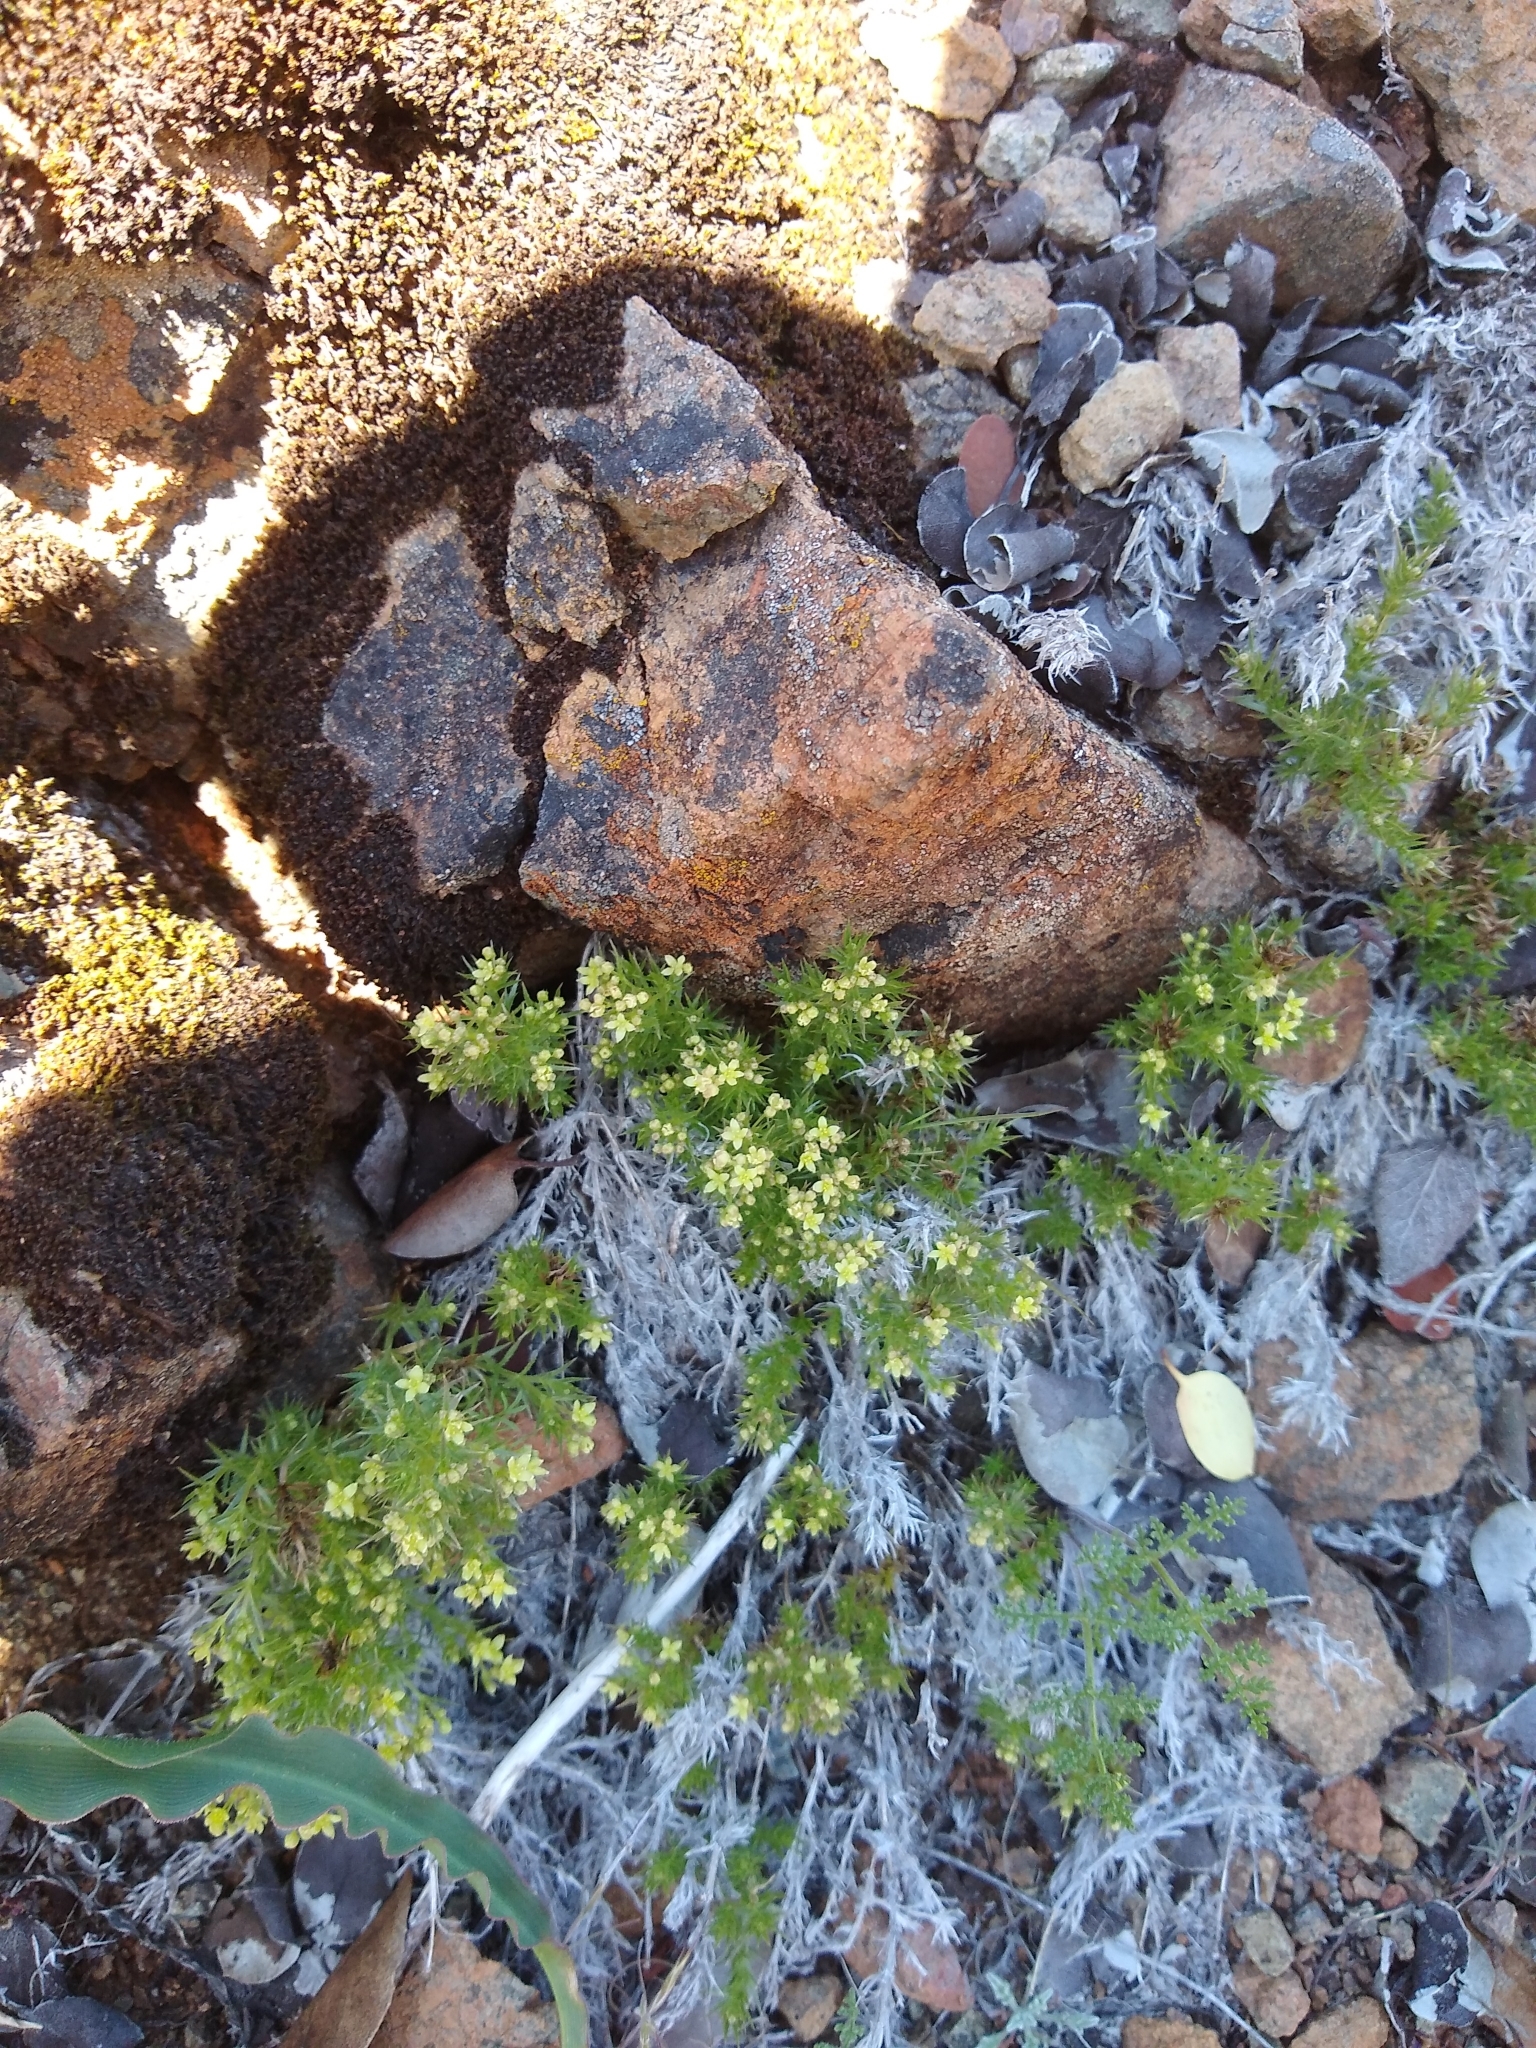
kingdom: Plantae
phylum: Tracheophyta
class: Magnoliopsida
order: Gentianales
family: Rubiaceae
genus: Galium
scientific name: Galium andrewsii
